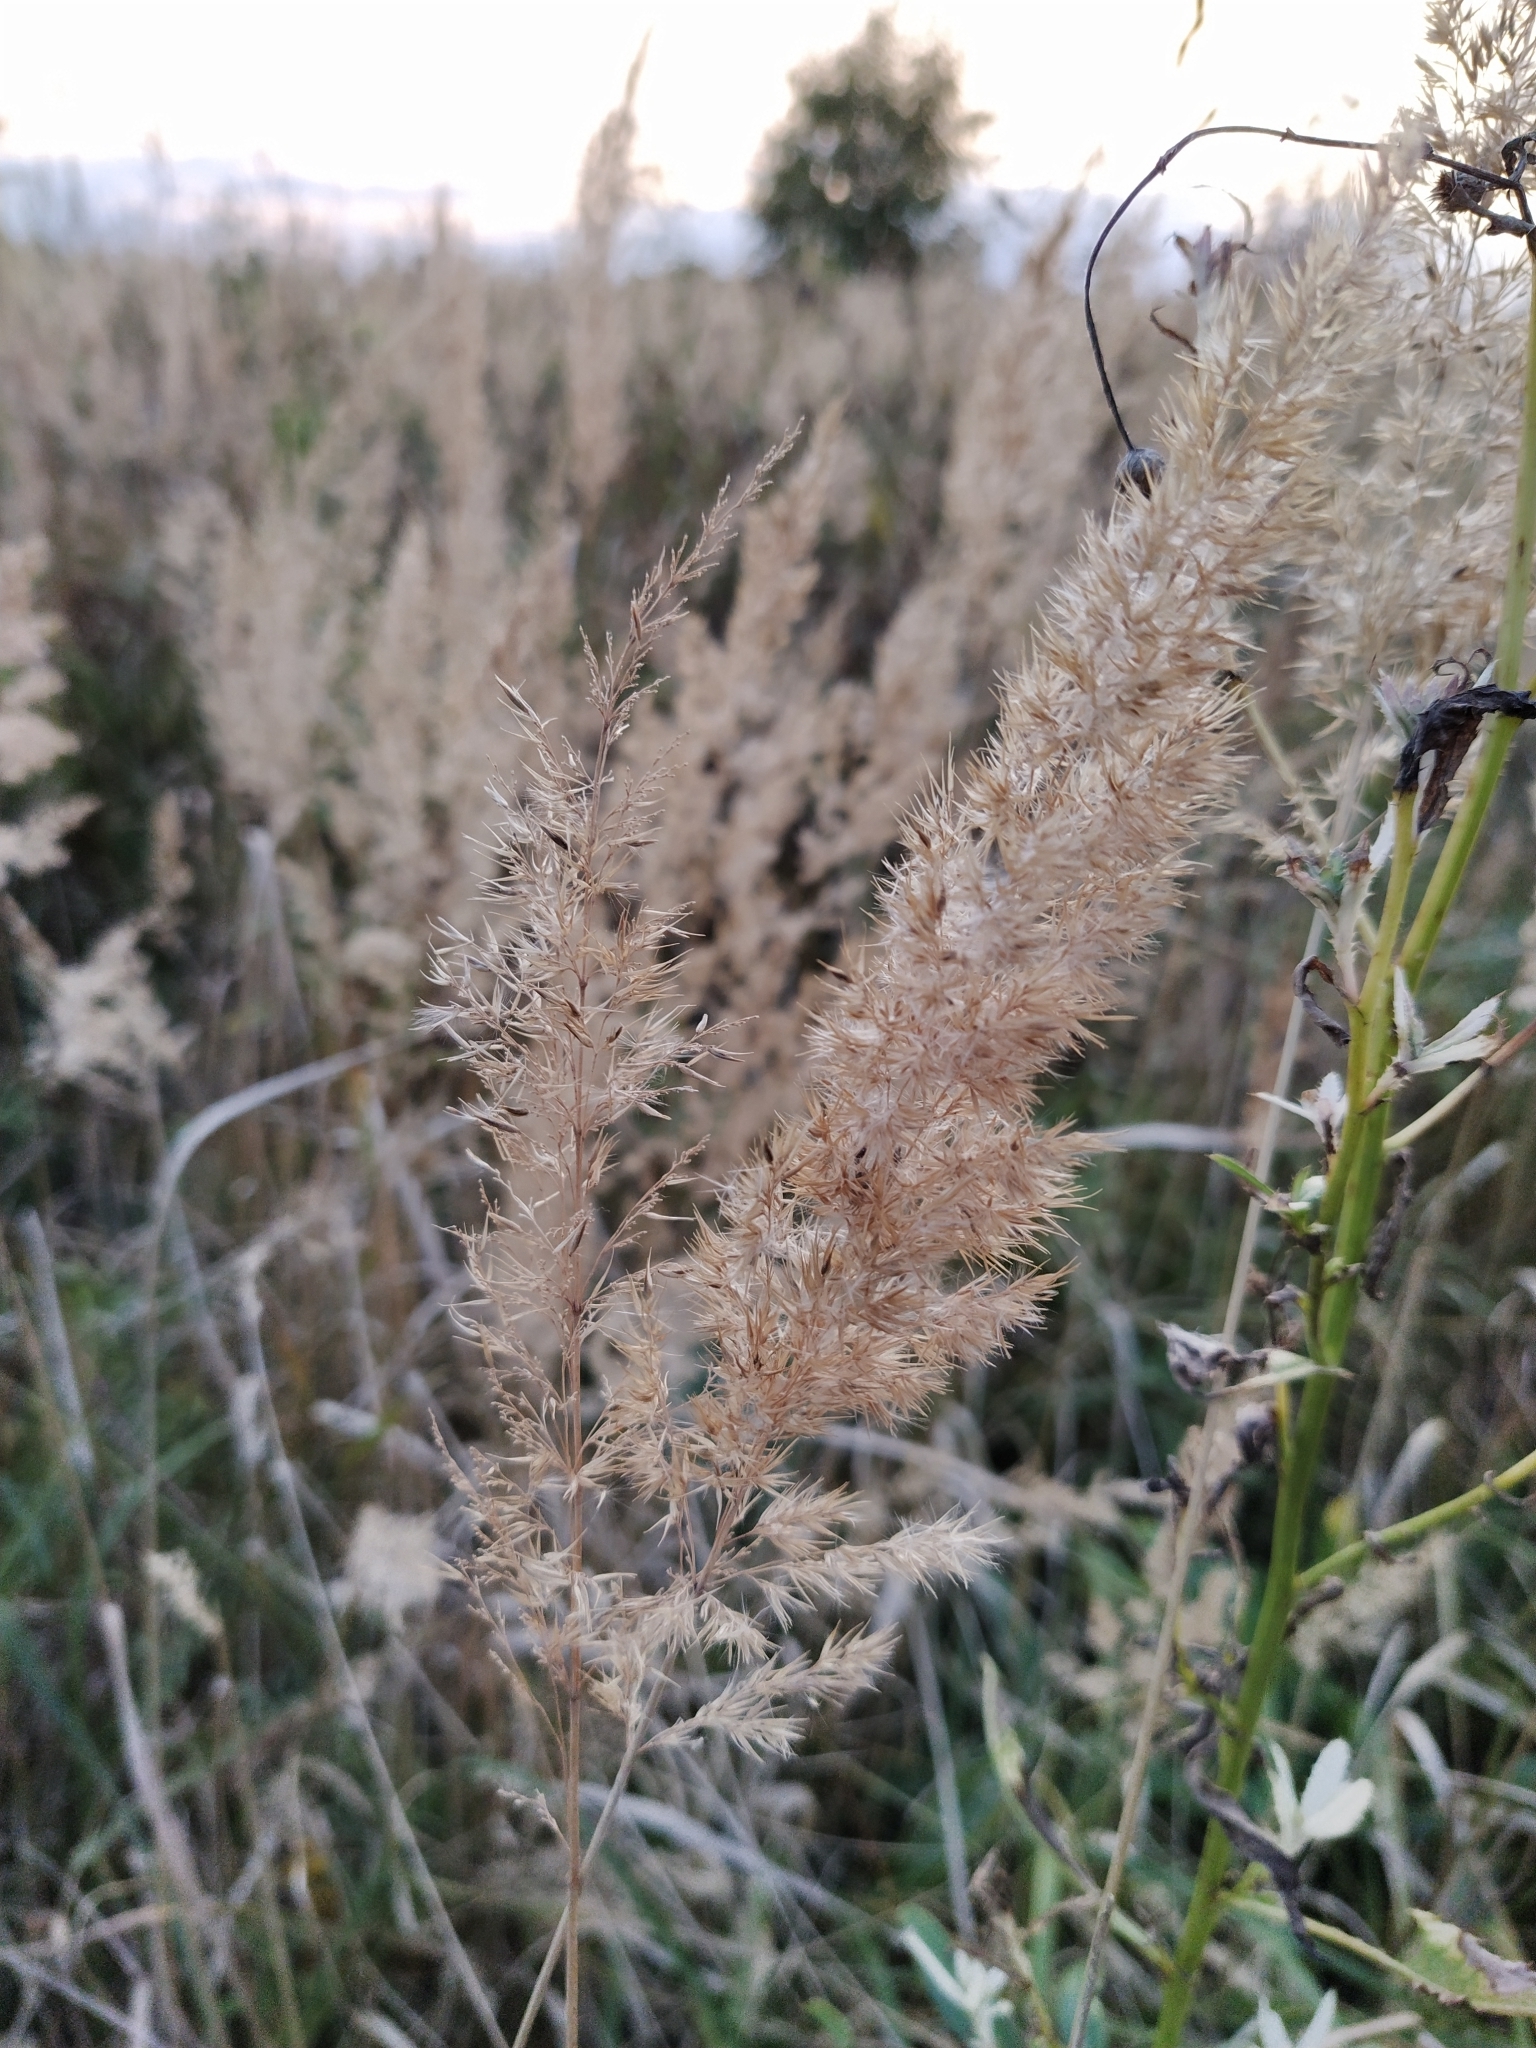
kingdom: Plantae
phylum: Tracheophyta
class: Liliopsida
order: Poales
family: Poaceae
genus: Calamagrostis
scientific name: Calamagrostis epigejos
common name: Wood small-reed
